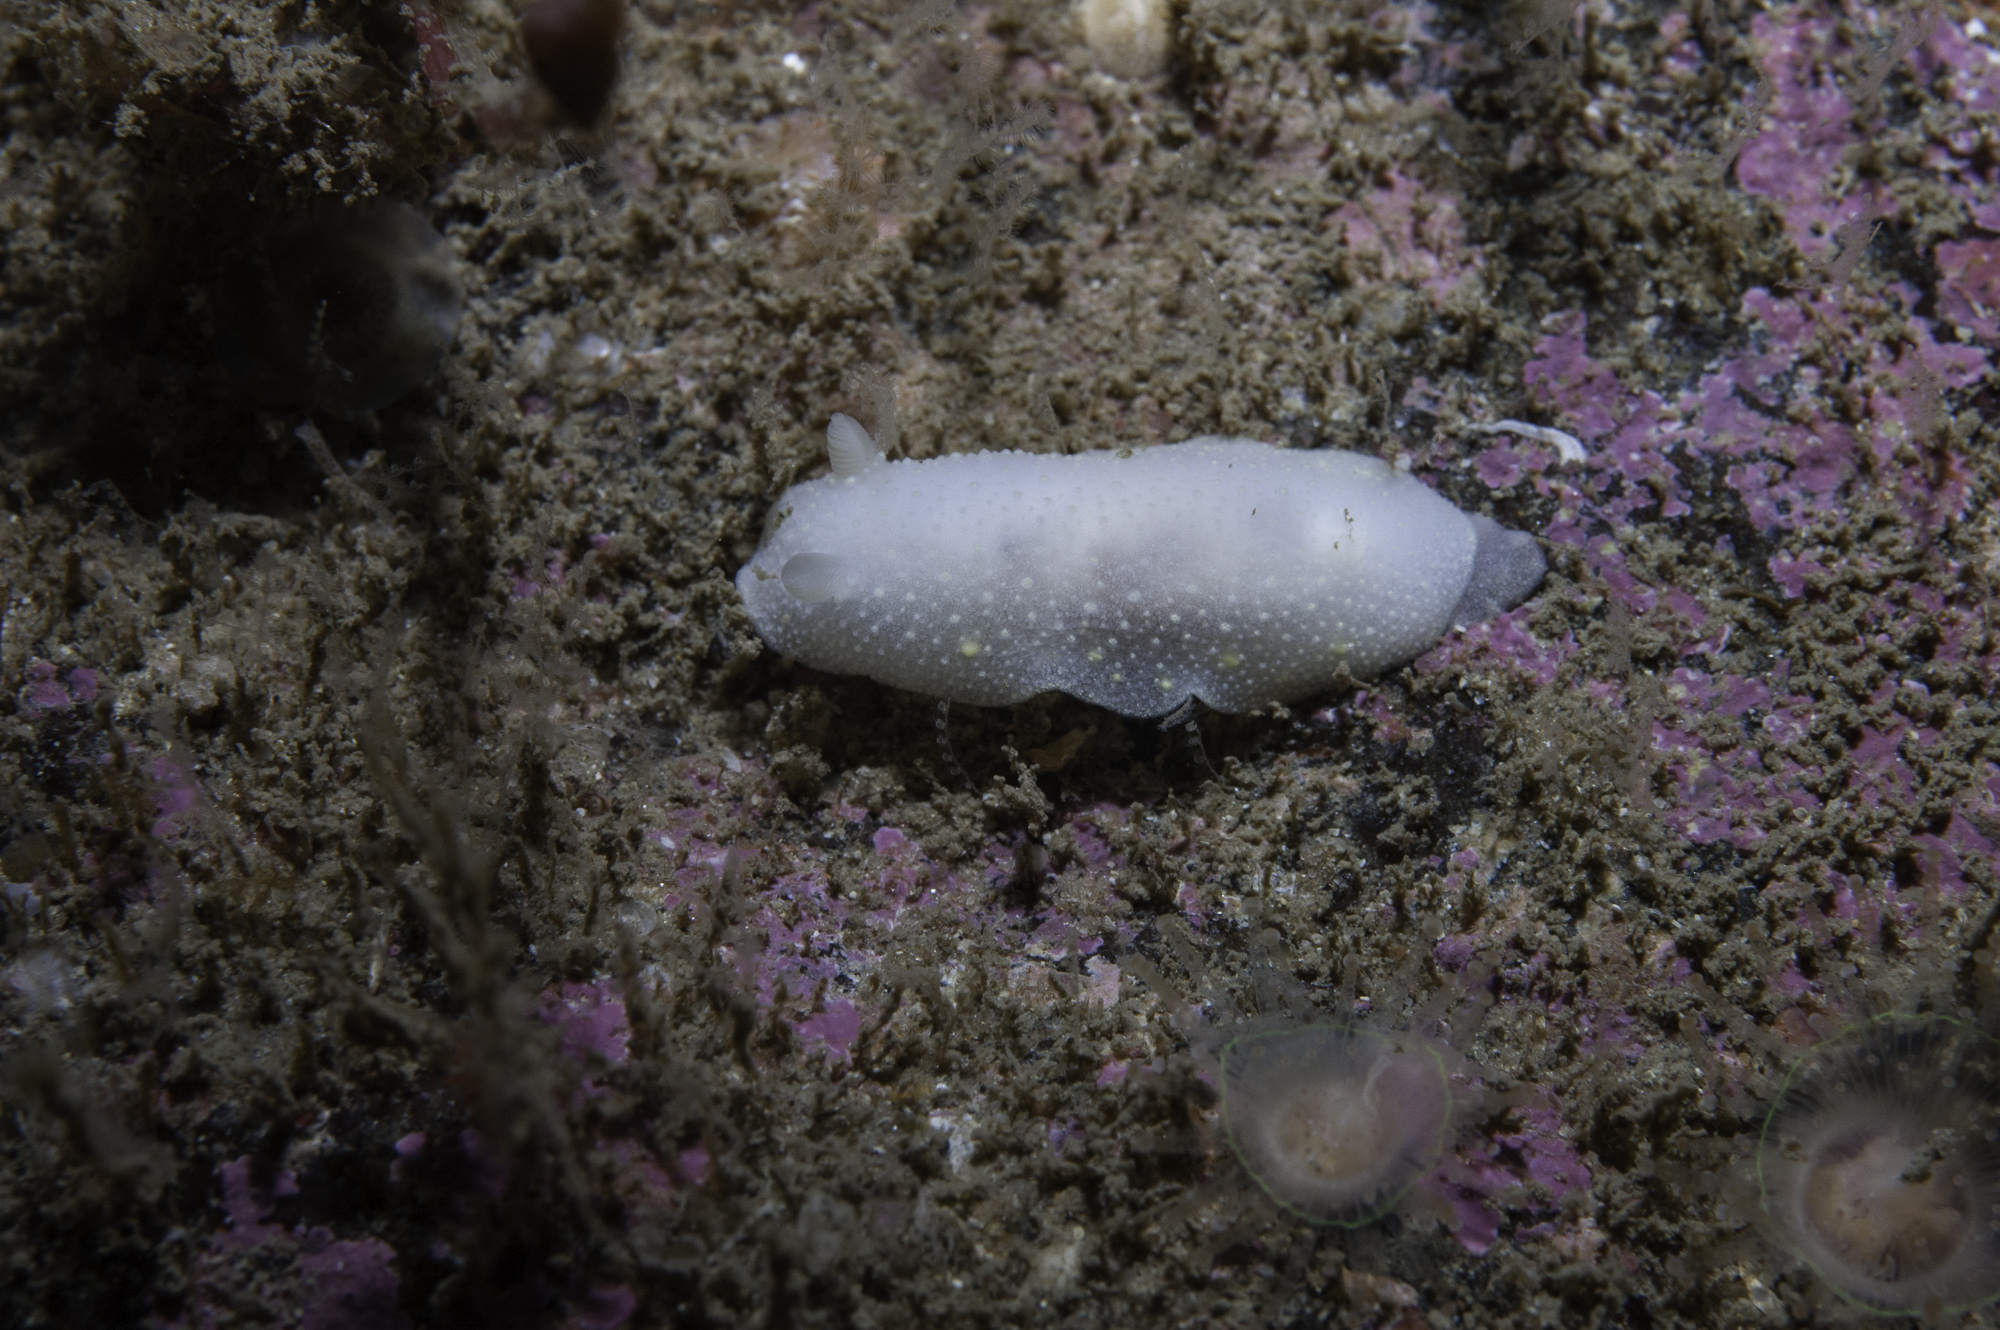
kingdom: Animalia
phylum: Mollusca
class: Gastropoda
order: Nudibranchia
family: Cadlinidae
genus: Cadlina
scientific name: Cadlina laevis
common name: White atlantic cadlina
